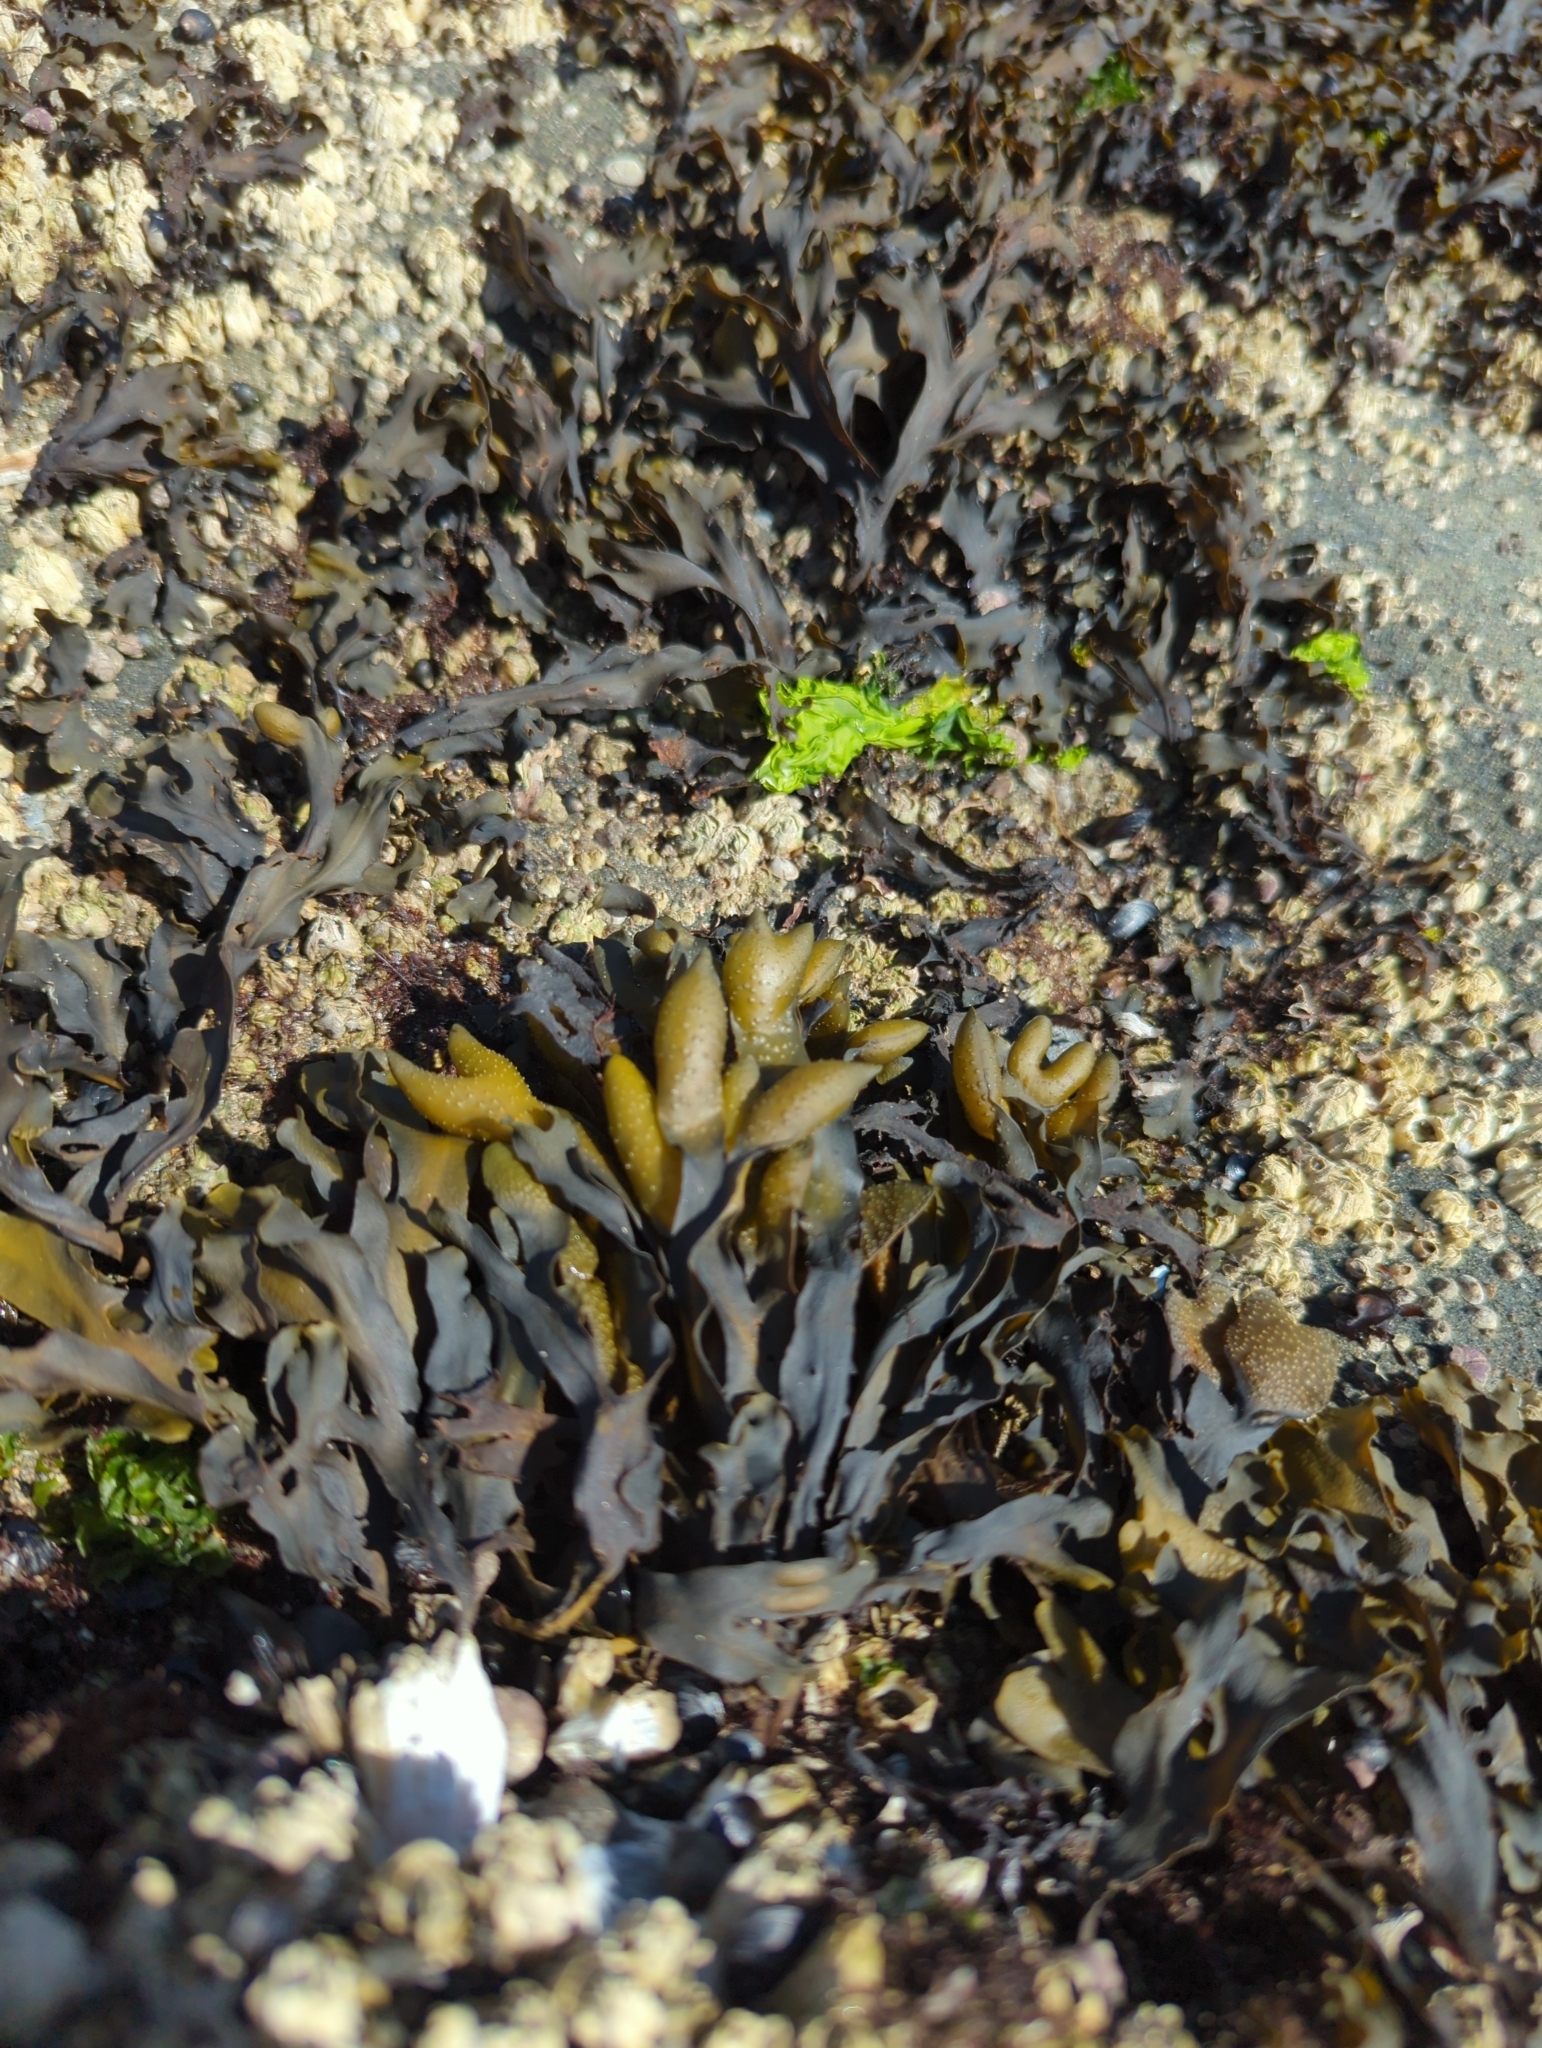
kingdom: Chromista
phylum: Ochrophyta
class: Phaeophyceae
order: Fucales
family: Fucaceae
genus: Fucus
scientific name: Fucus distichus
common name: Rockweed
